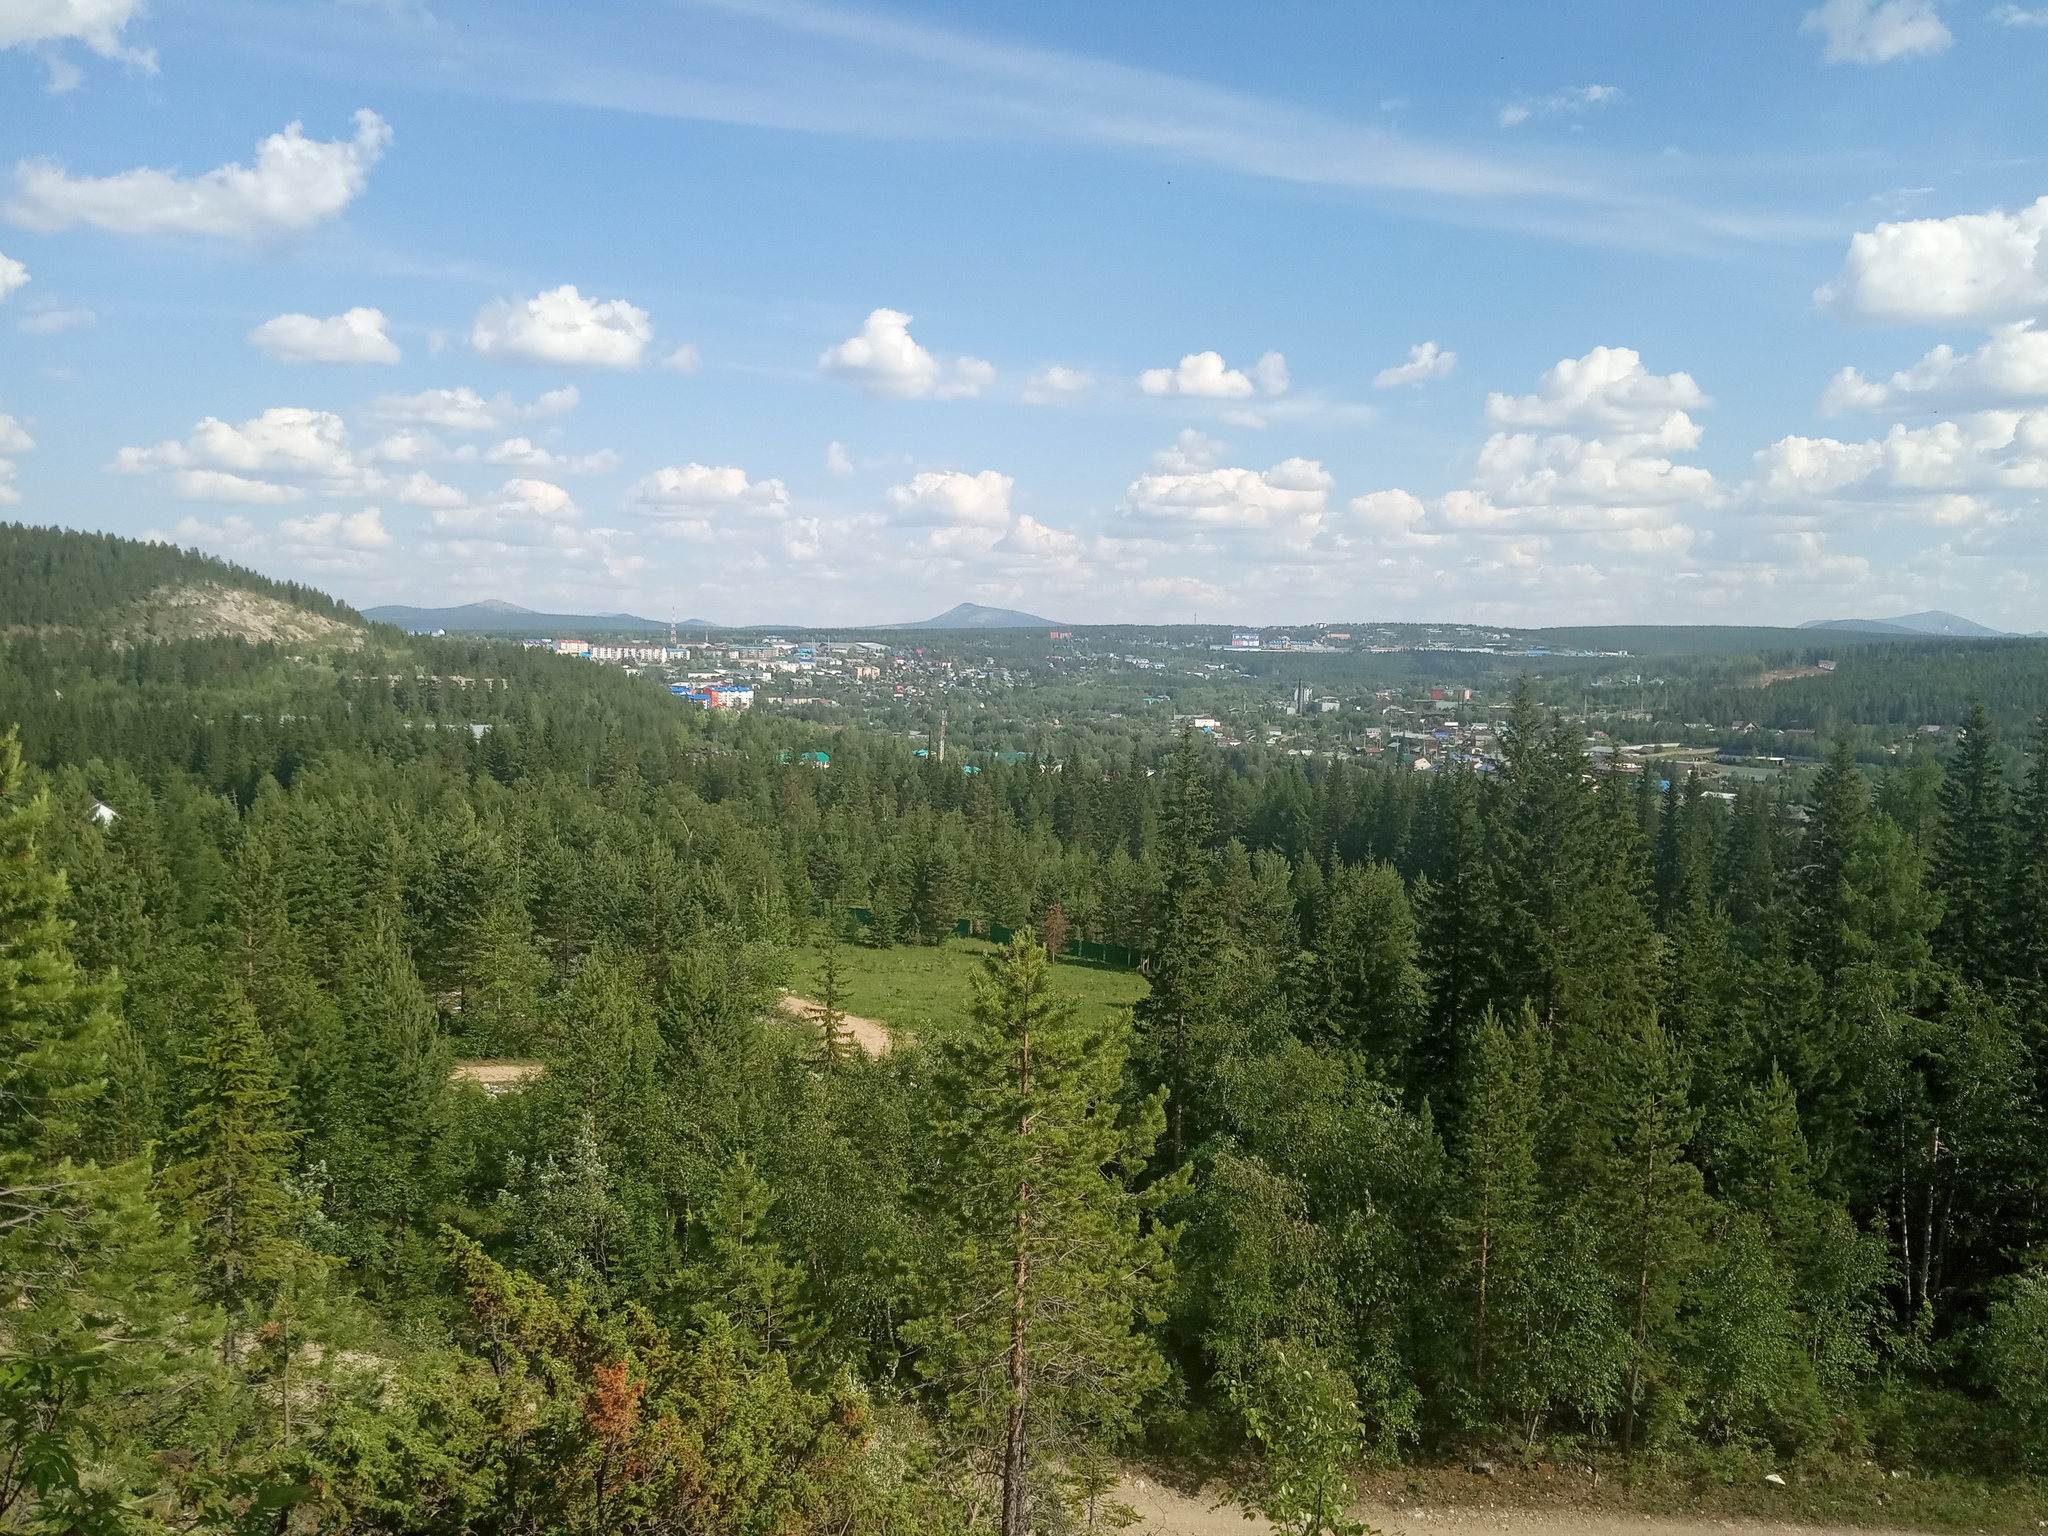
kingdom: Plantae
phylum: Tracheophyta
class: Pinopsida
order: Pinales
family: Pinaceae
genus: Picea
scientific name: Picea obovata
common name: Siberian spruce
